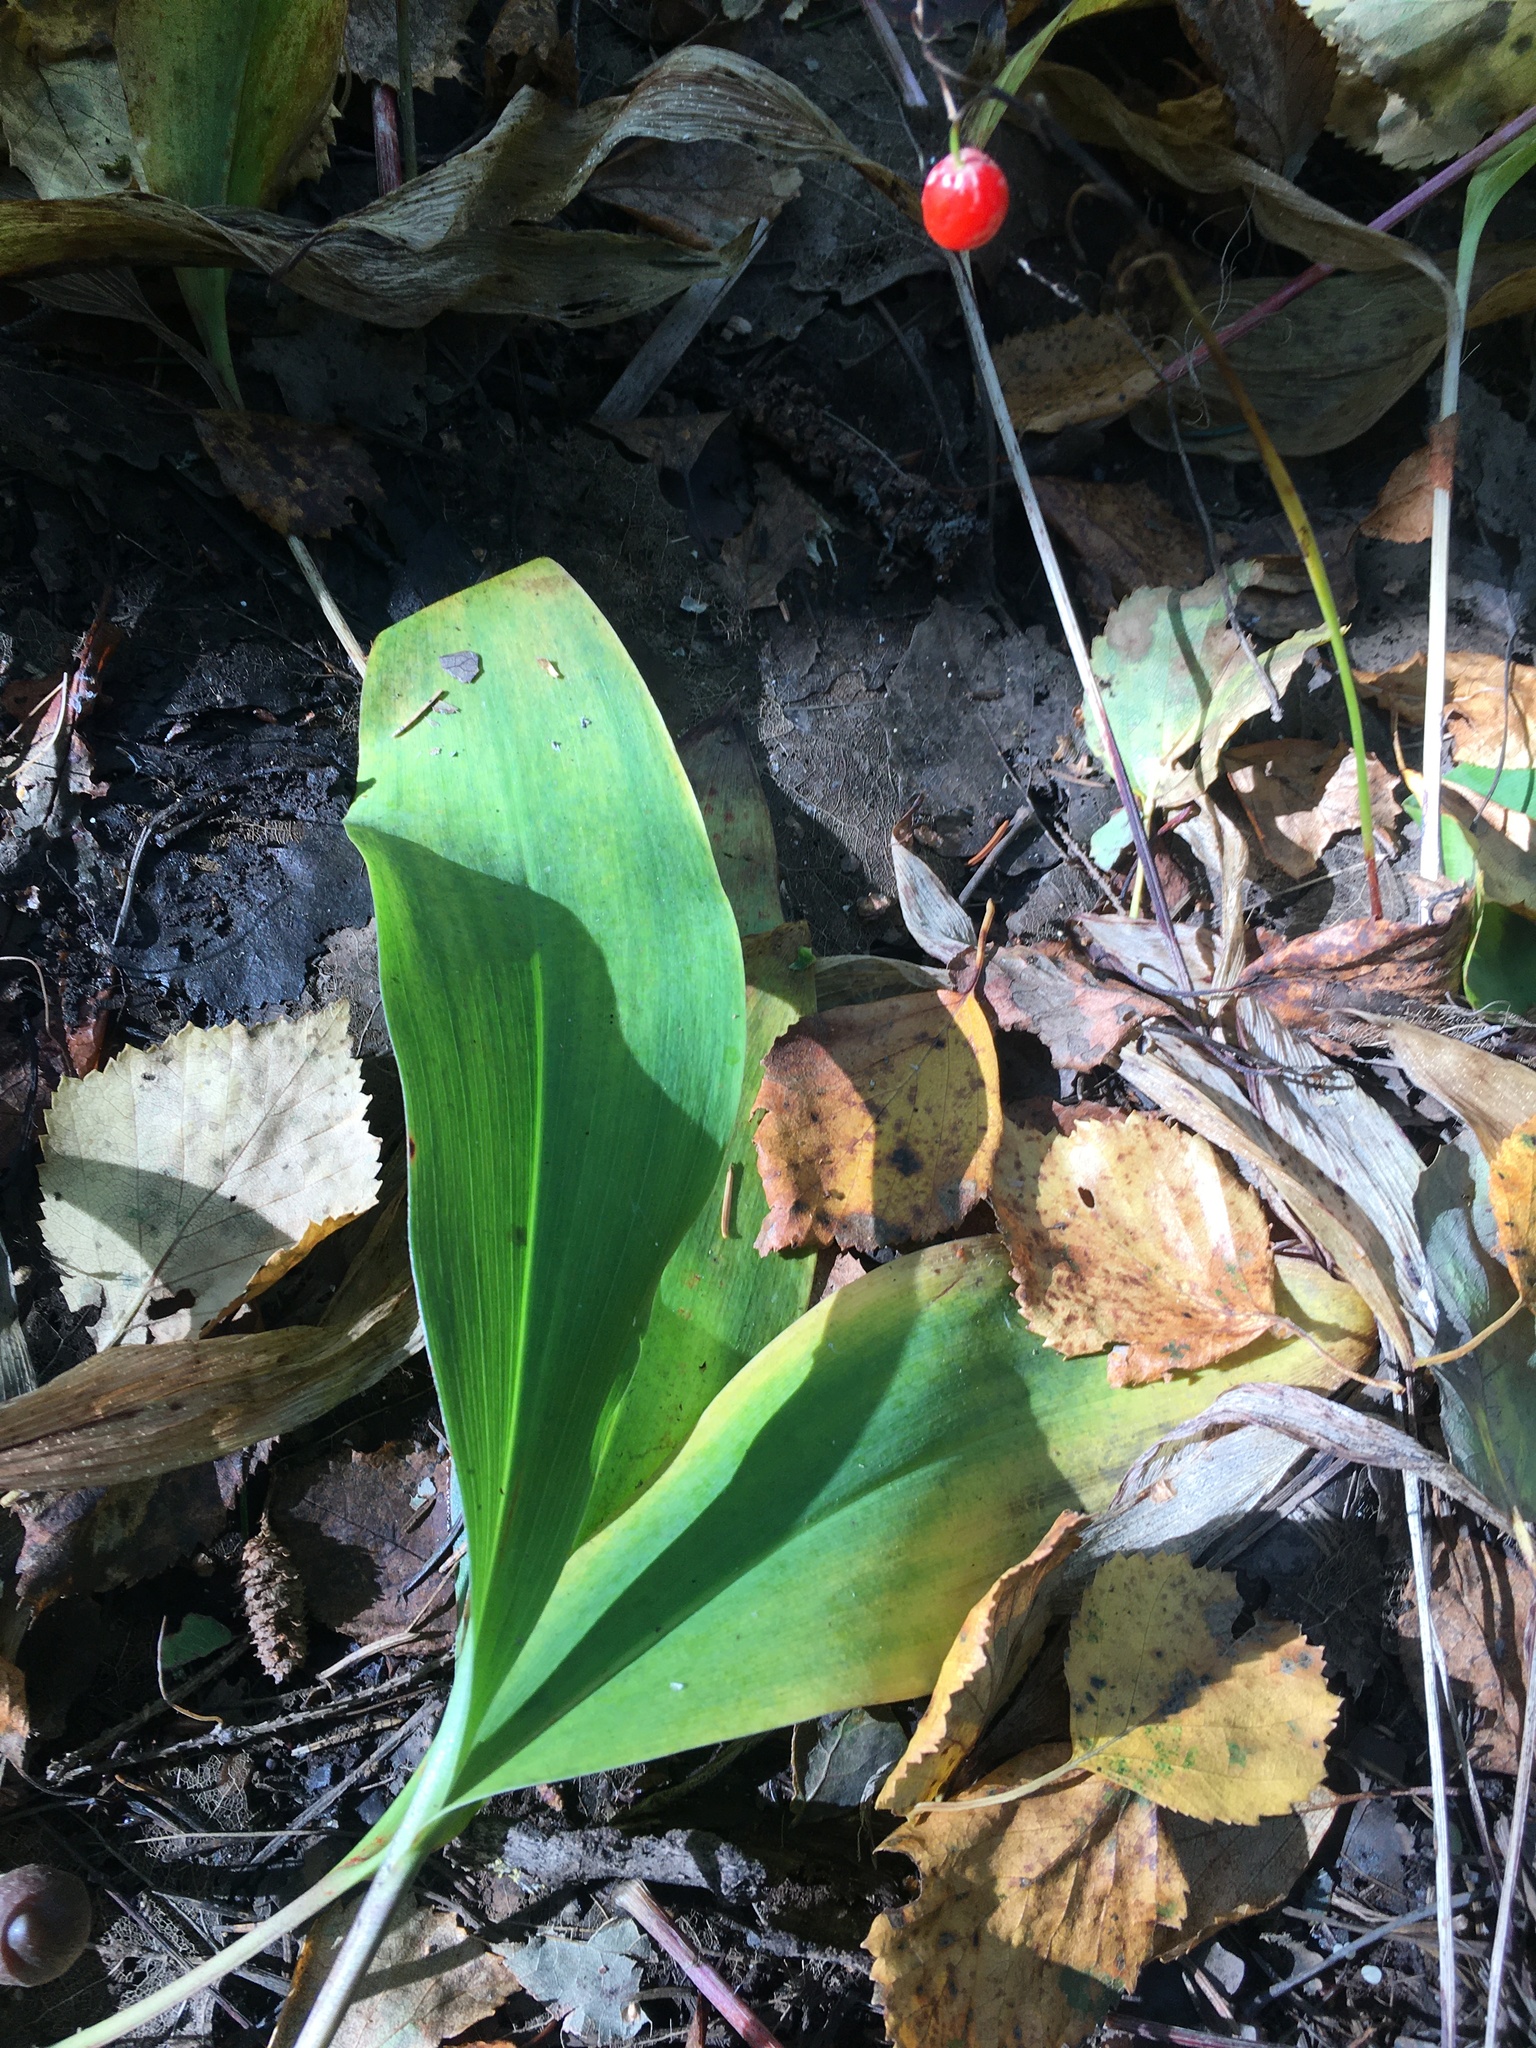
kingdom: Plantae
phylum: Tracheophyta
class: Liliopsida
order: Asparagales
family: Asparagaceae
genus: Convallaria
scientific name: Convallaria majalis
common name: Lily-of-the-valley
